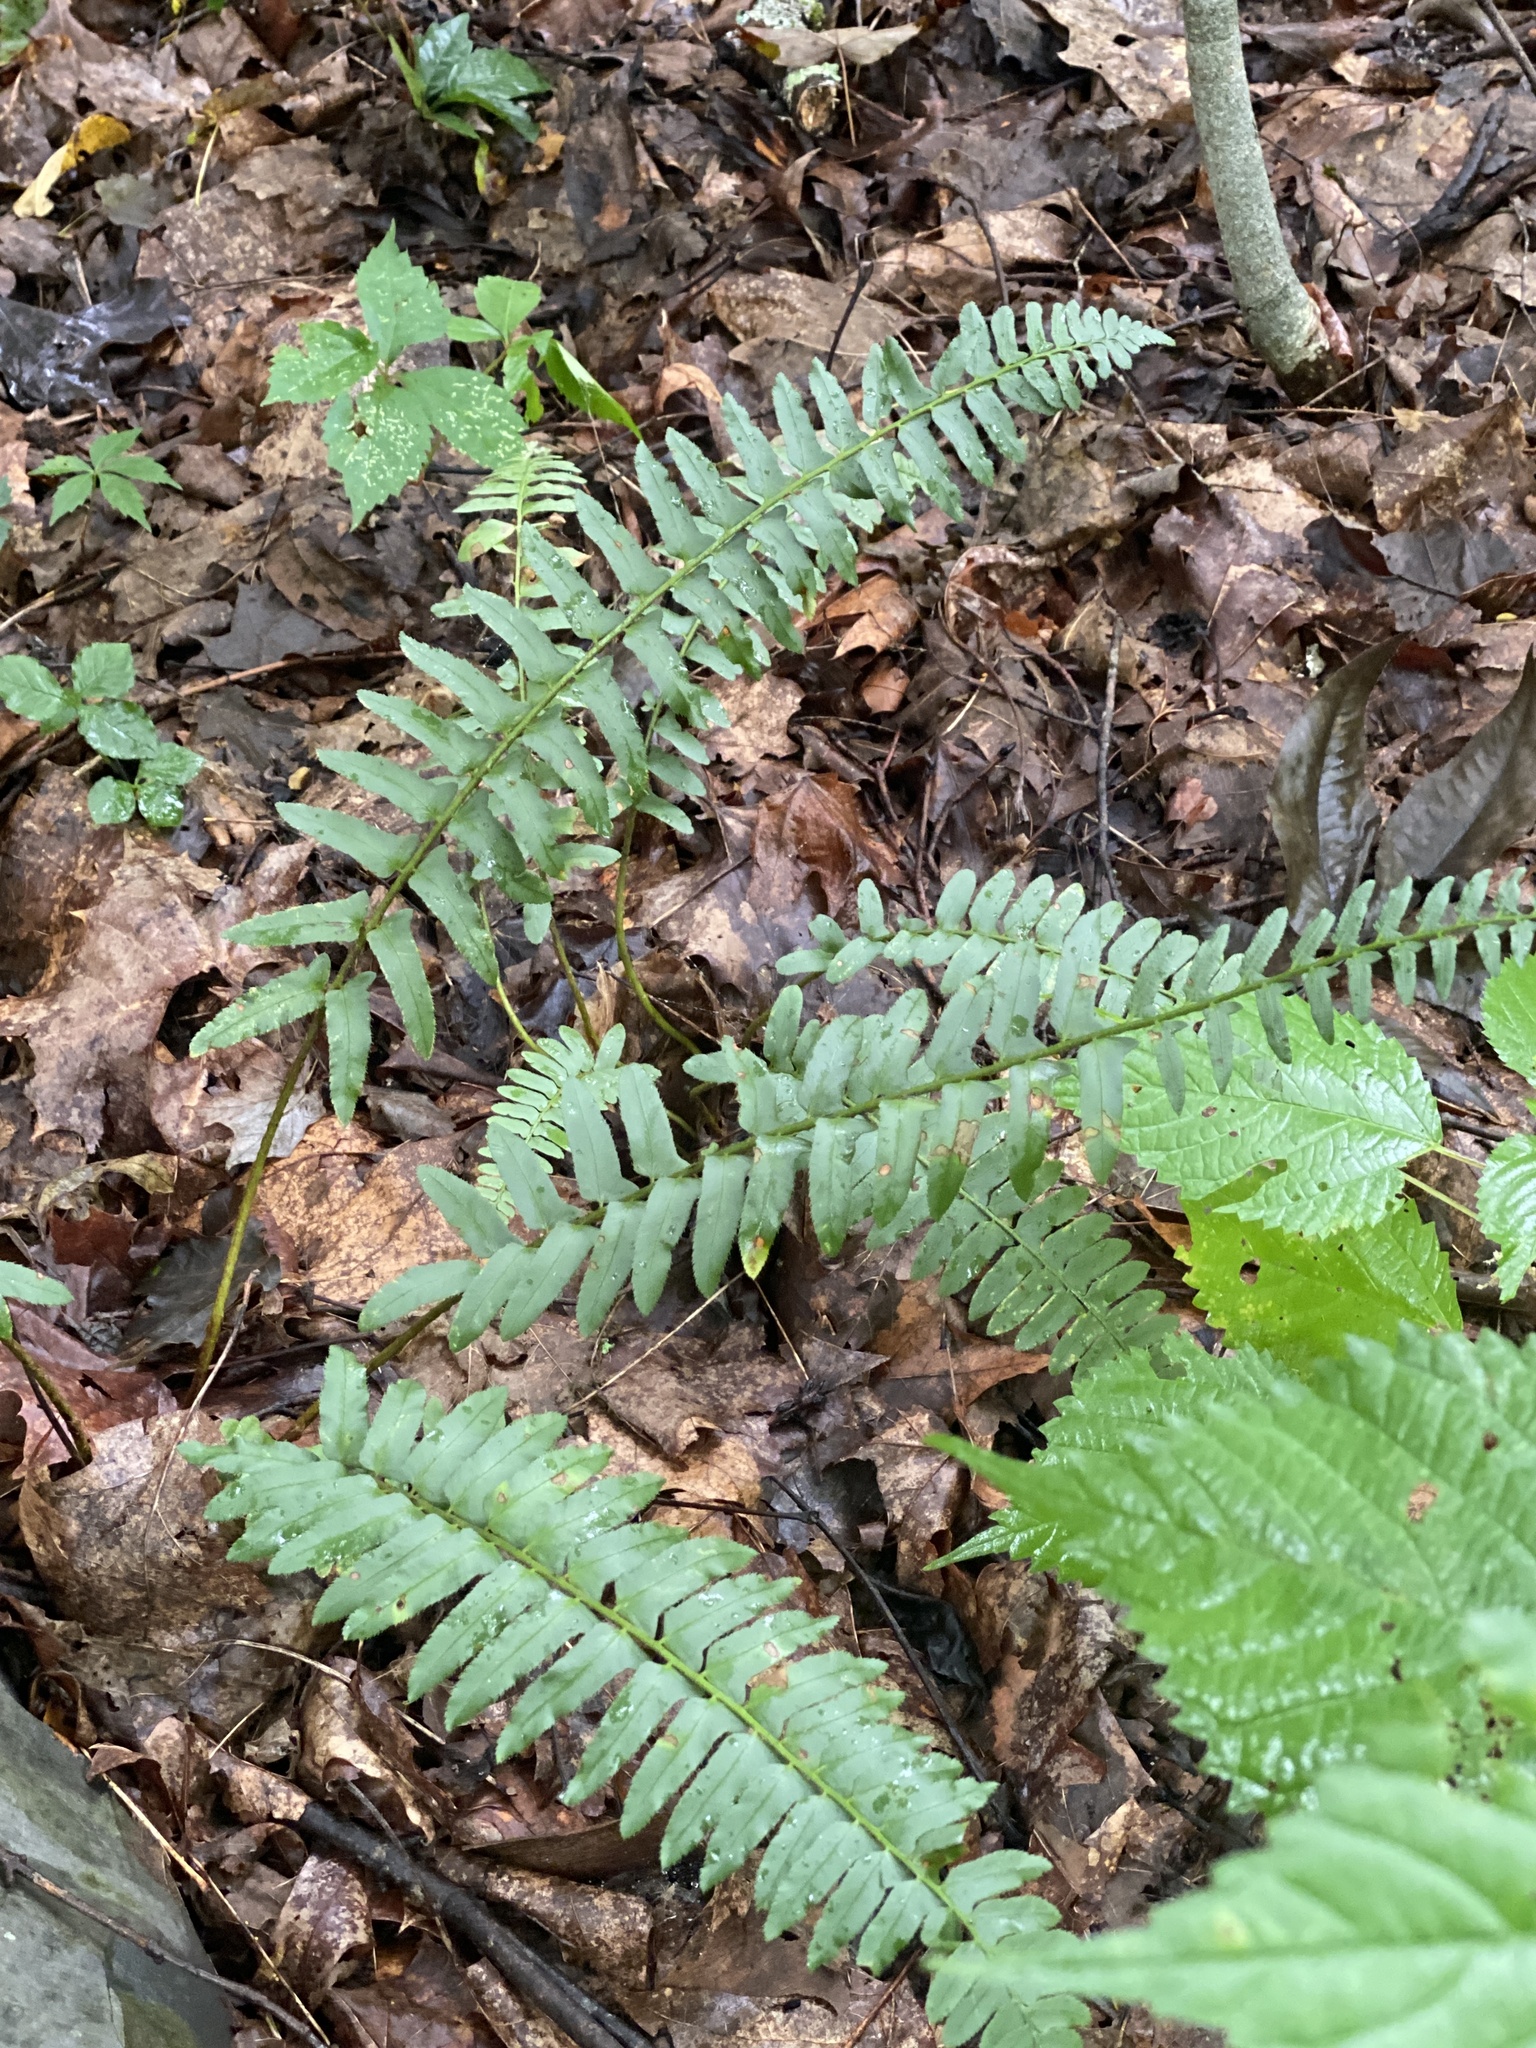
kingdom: Plantae
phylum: Tracheophyta
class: Polypodiopsida
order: Polypodiales
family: Dryopteridaceae
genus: Polystichum
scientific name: Polystichum acrostichoides
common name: Christmas fern
